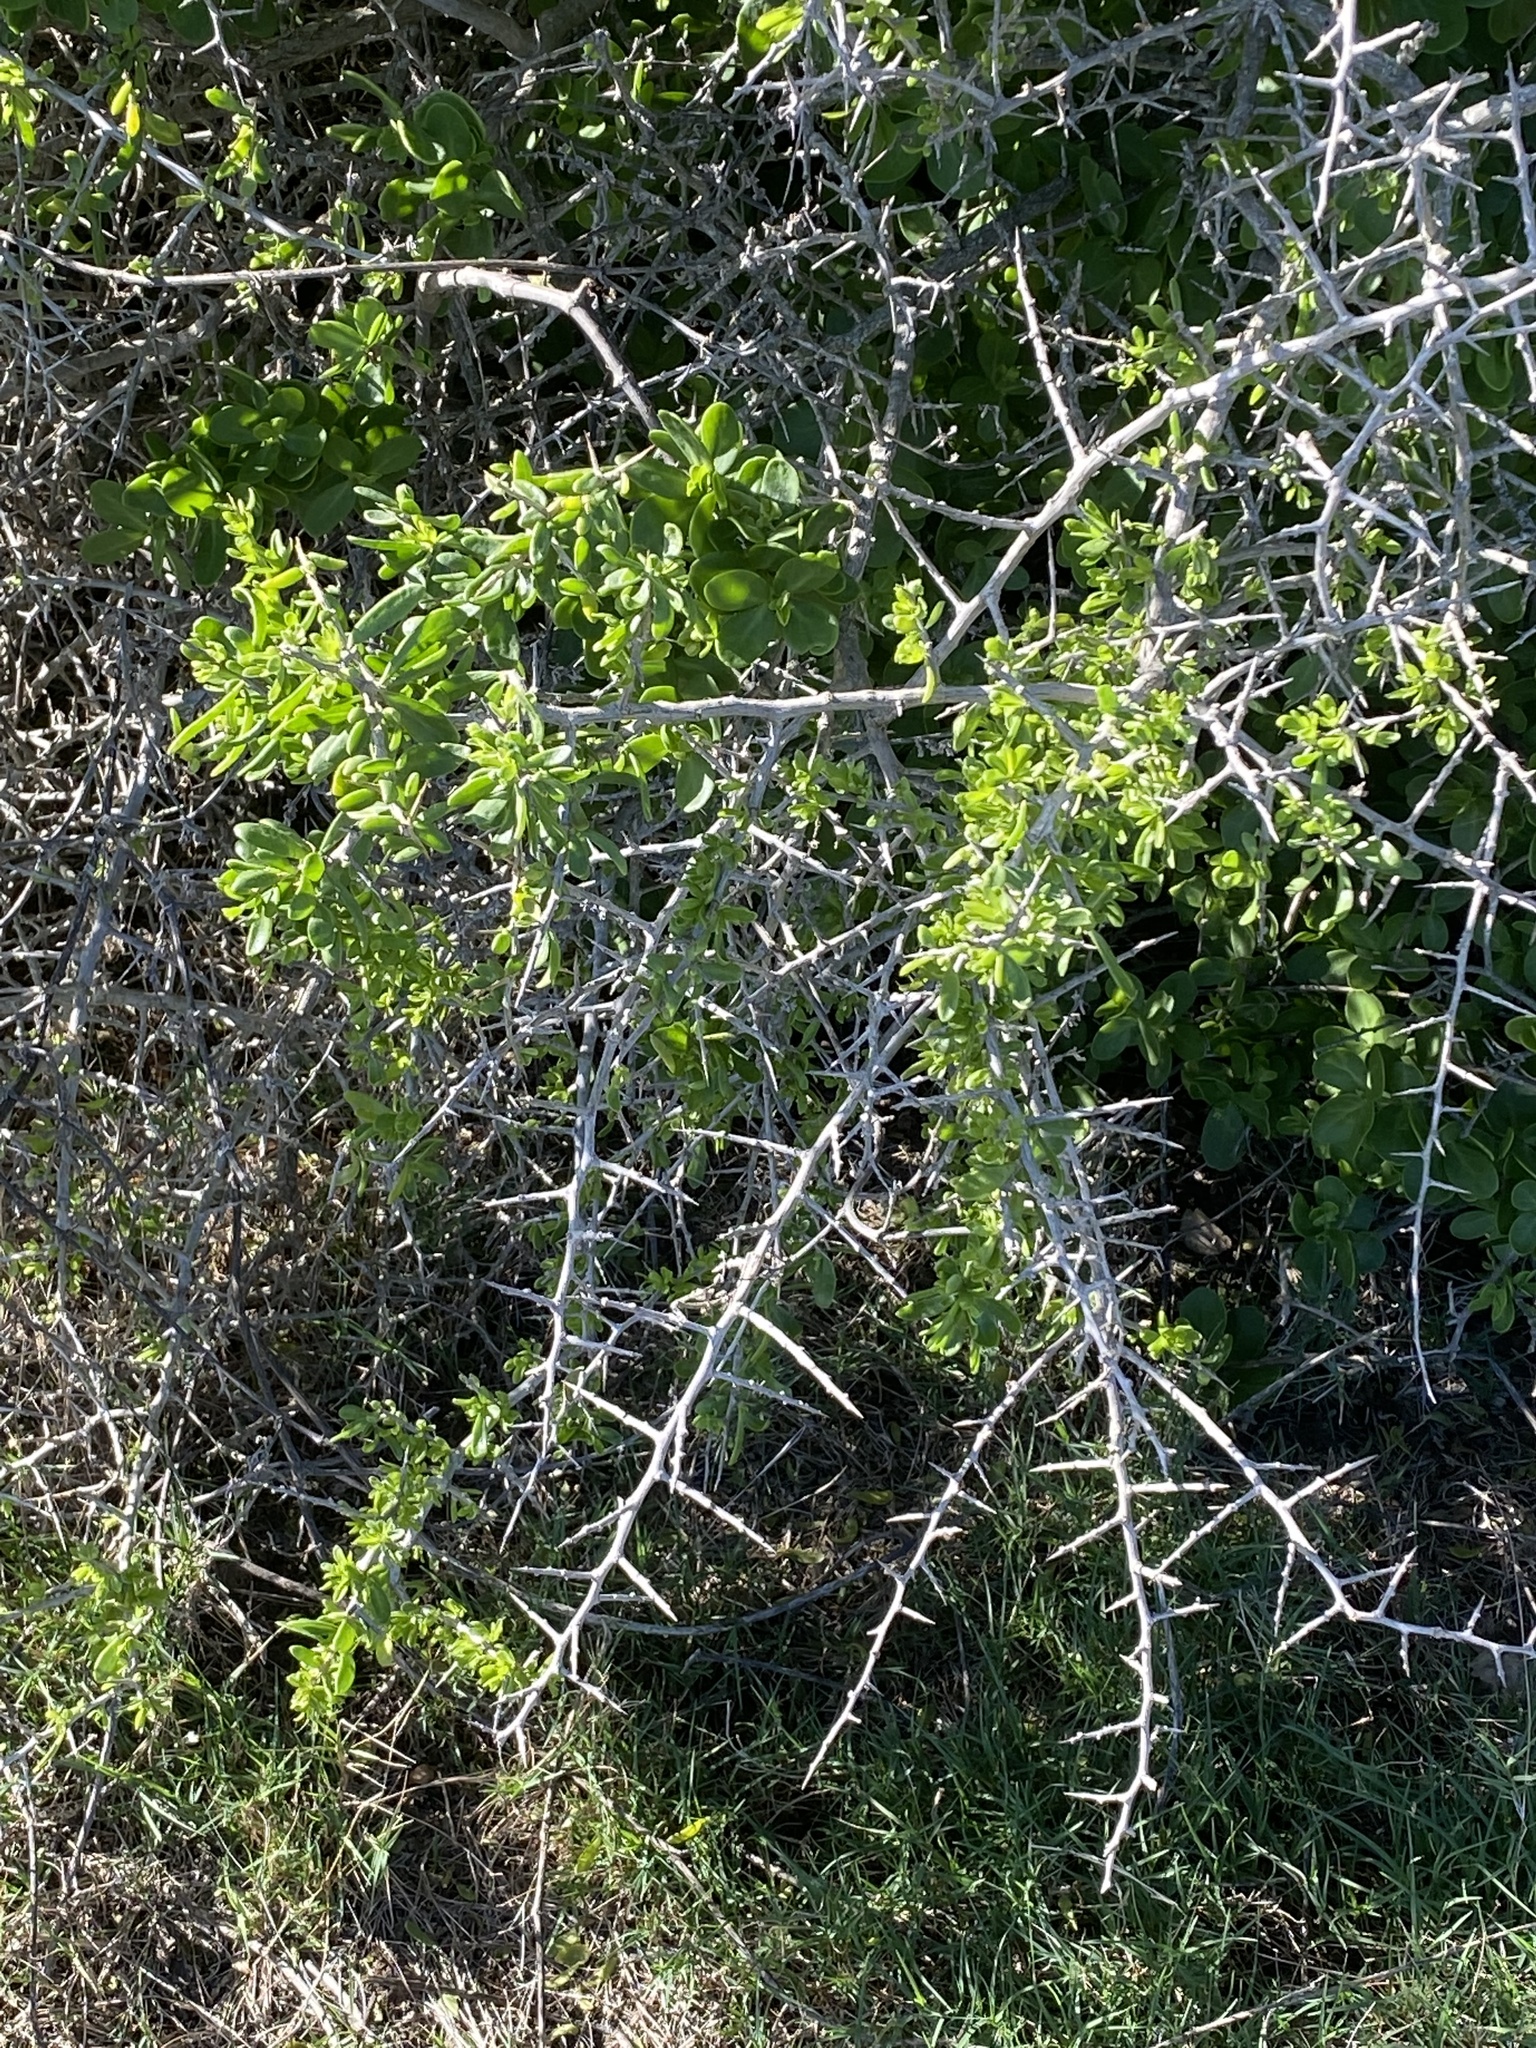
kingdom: Plantae
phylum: Tracheophyta
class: Magnoliopsida
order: Solanales
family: Solanaceae
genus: Lycium
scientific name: Lycium ferocissimum
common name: African boxthorn
